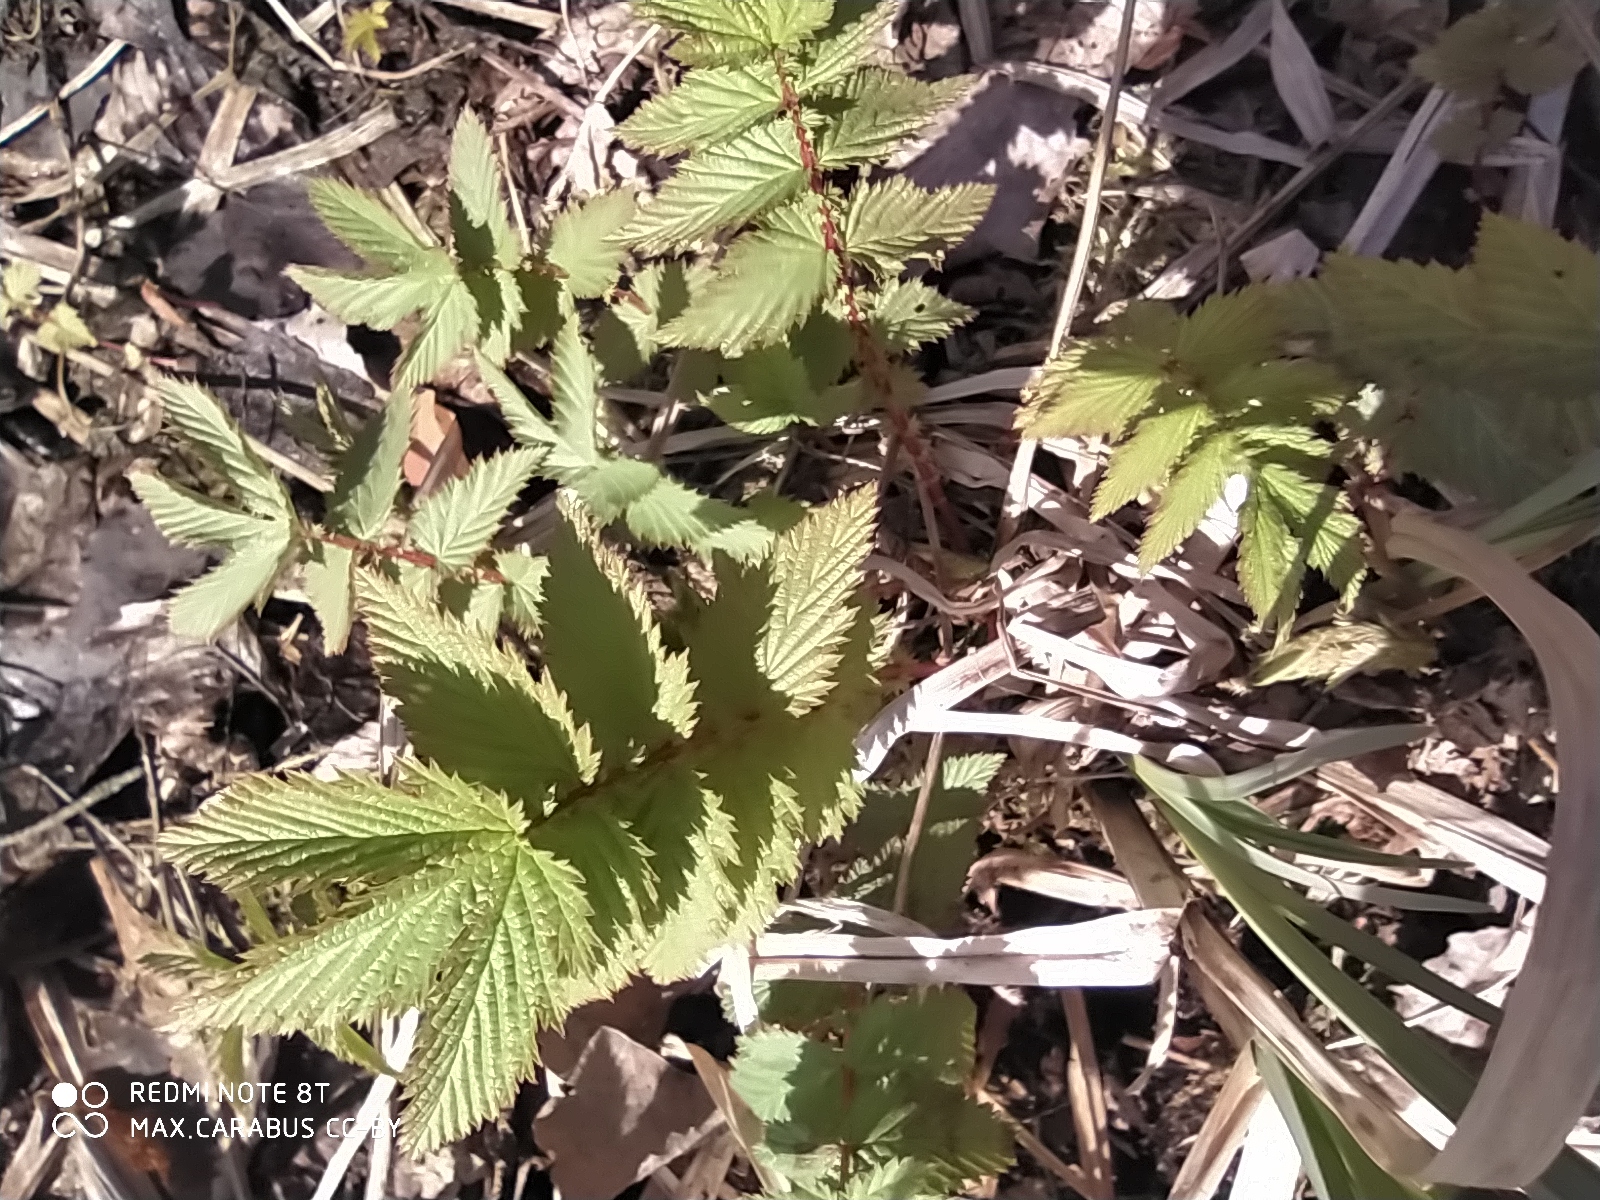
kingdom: Plantae
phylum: Tracheophyta
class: Magnoliopsida
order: Rosales
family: Rosaceae
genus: Filipendula
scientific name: Filipendula ulmaria
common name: Meadowsweet
